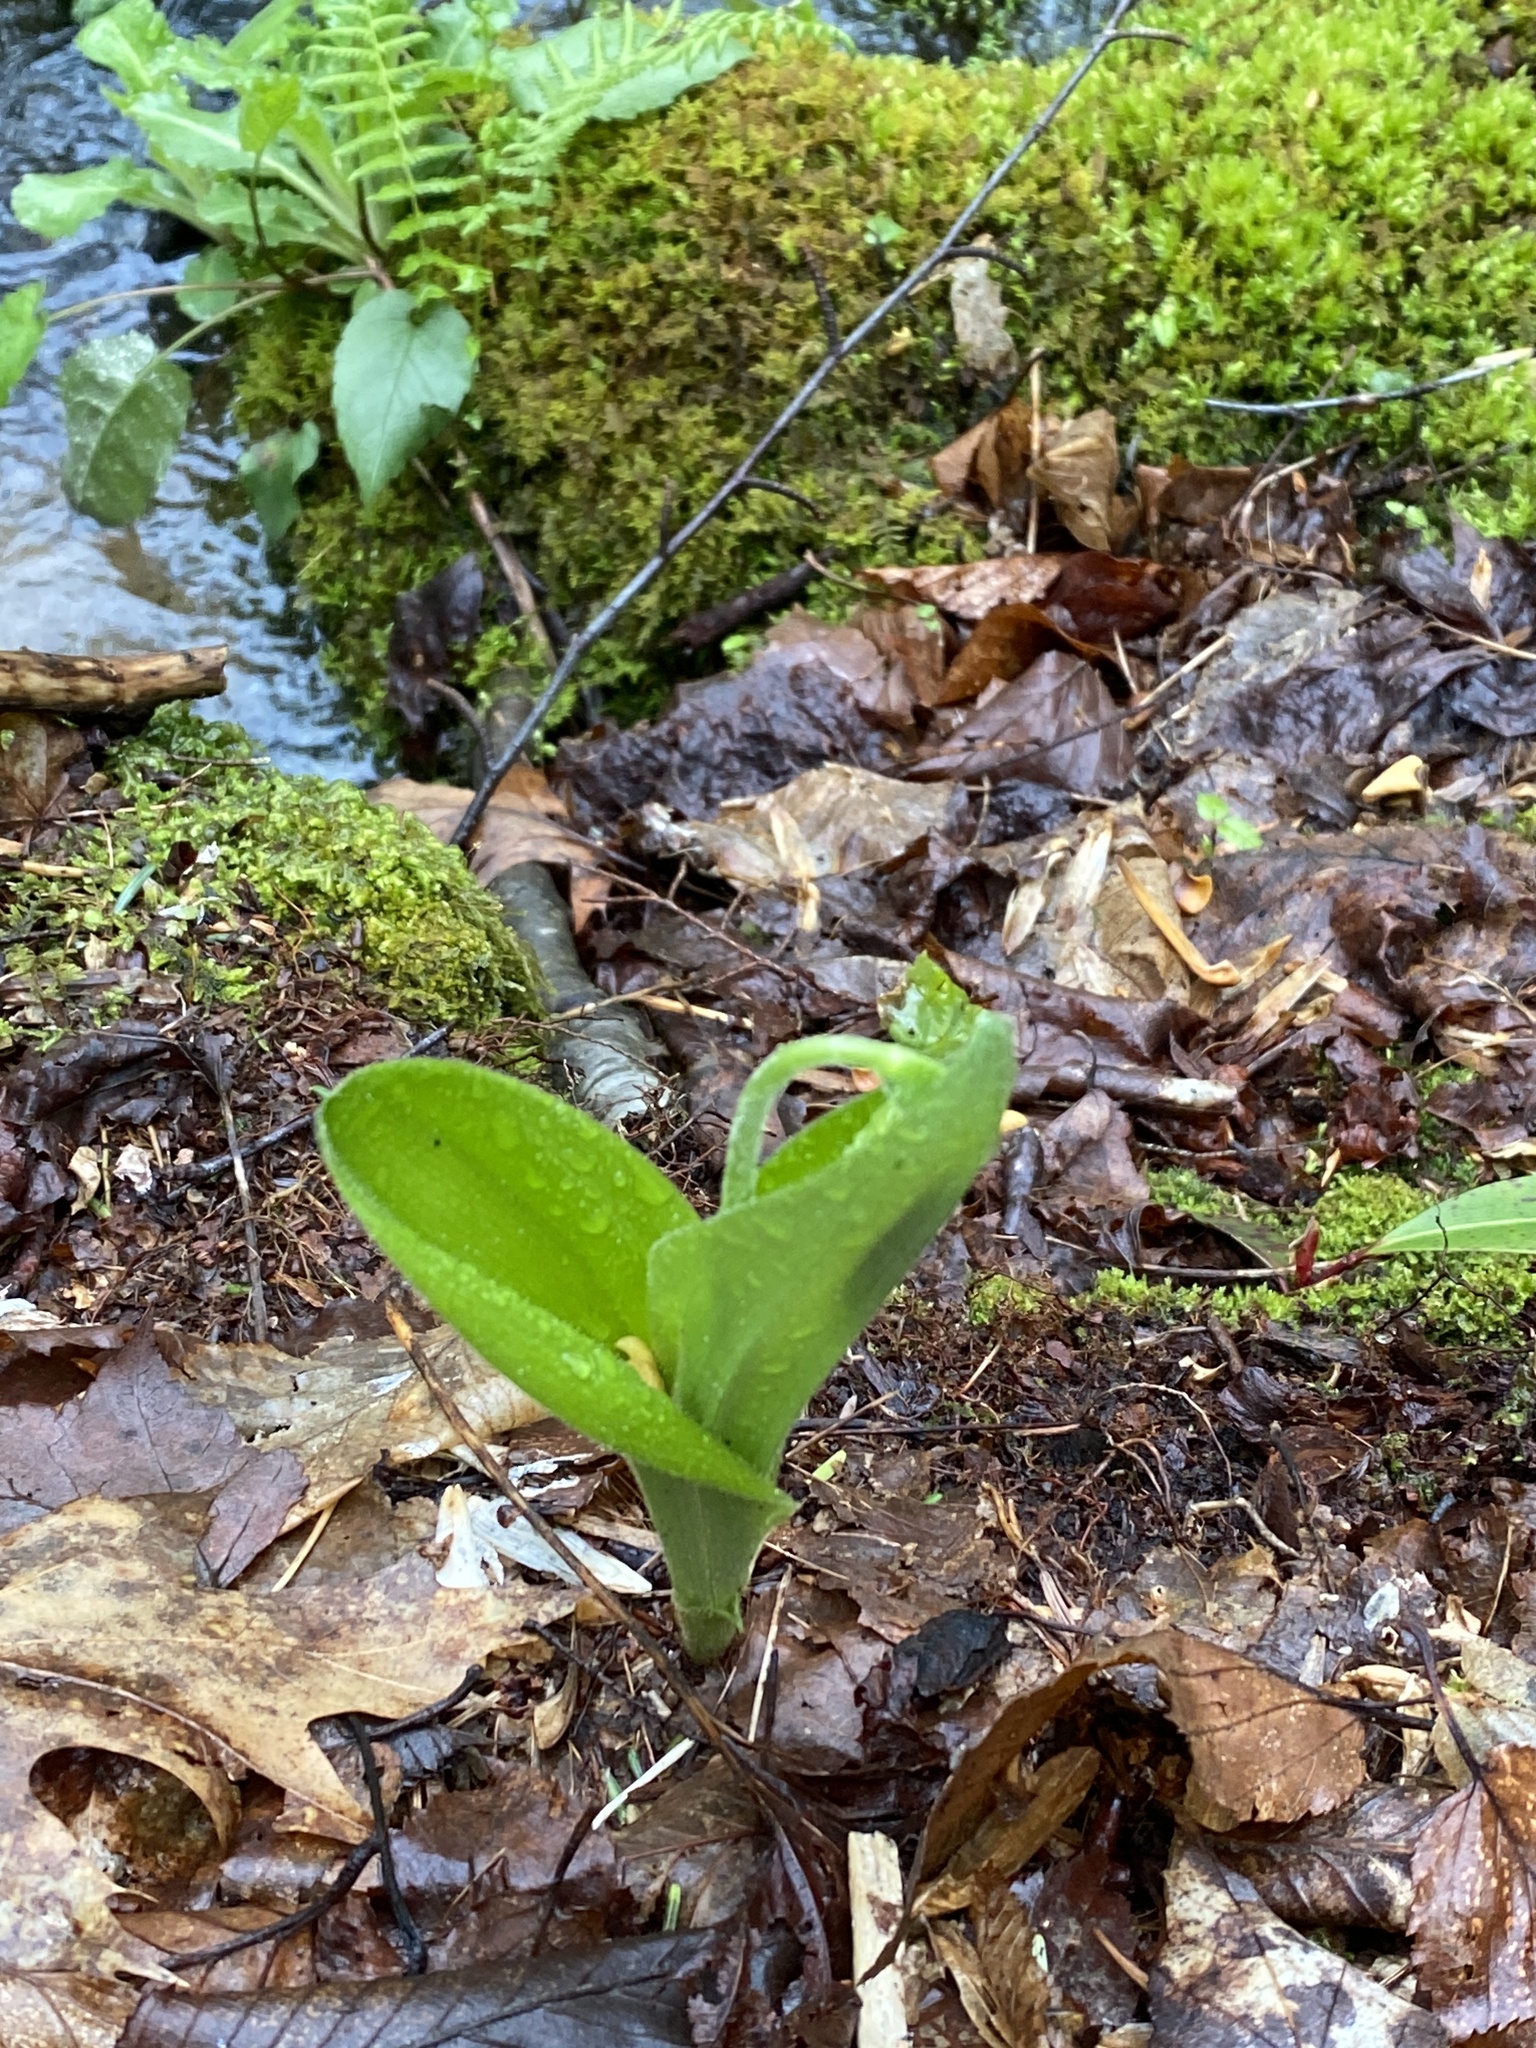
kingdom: Plantae
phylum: Tracheophyta
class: Liliopsida
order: Asparagales
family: Orchidaceae
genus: Cypripedium
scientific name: Cypripedium acaule
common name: Pink lady's-slipper
